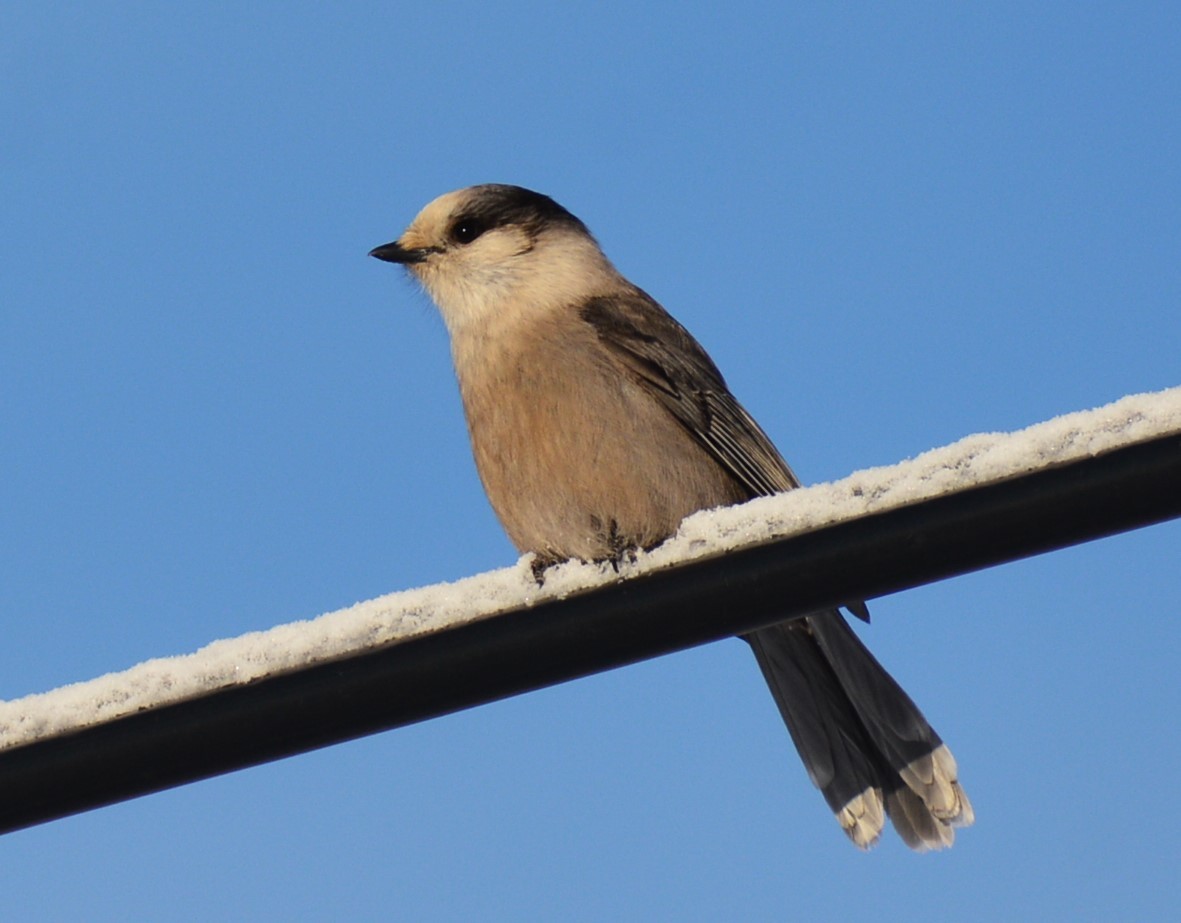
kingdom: Animalia
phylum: Chordata
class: Aves
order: Passeriformes
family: Corvidae
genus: Perisoreus
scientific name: Perisoreus canadensis
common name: Gray jay
